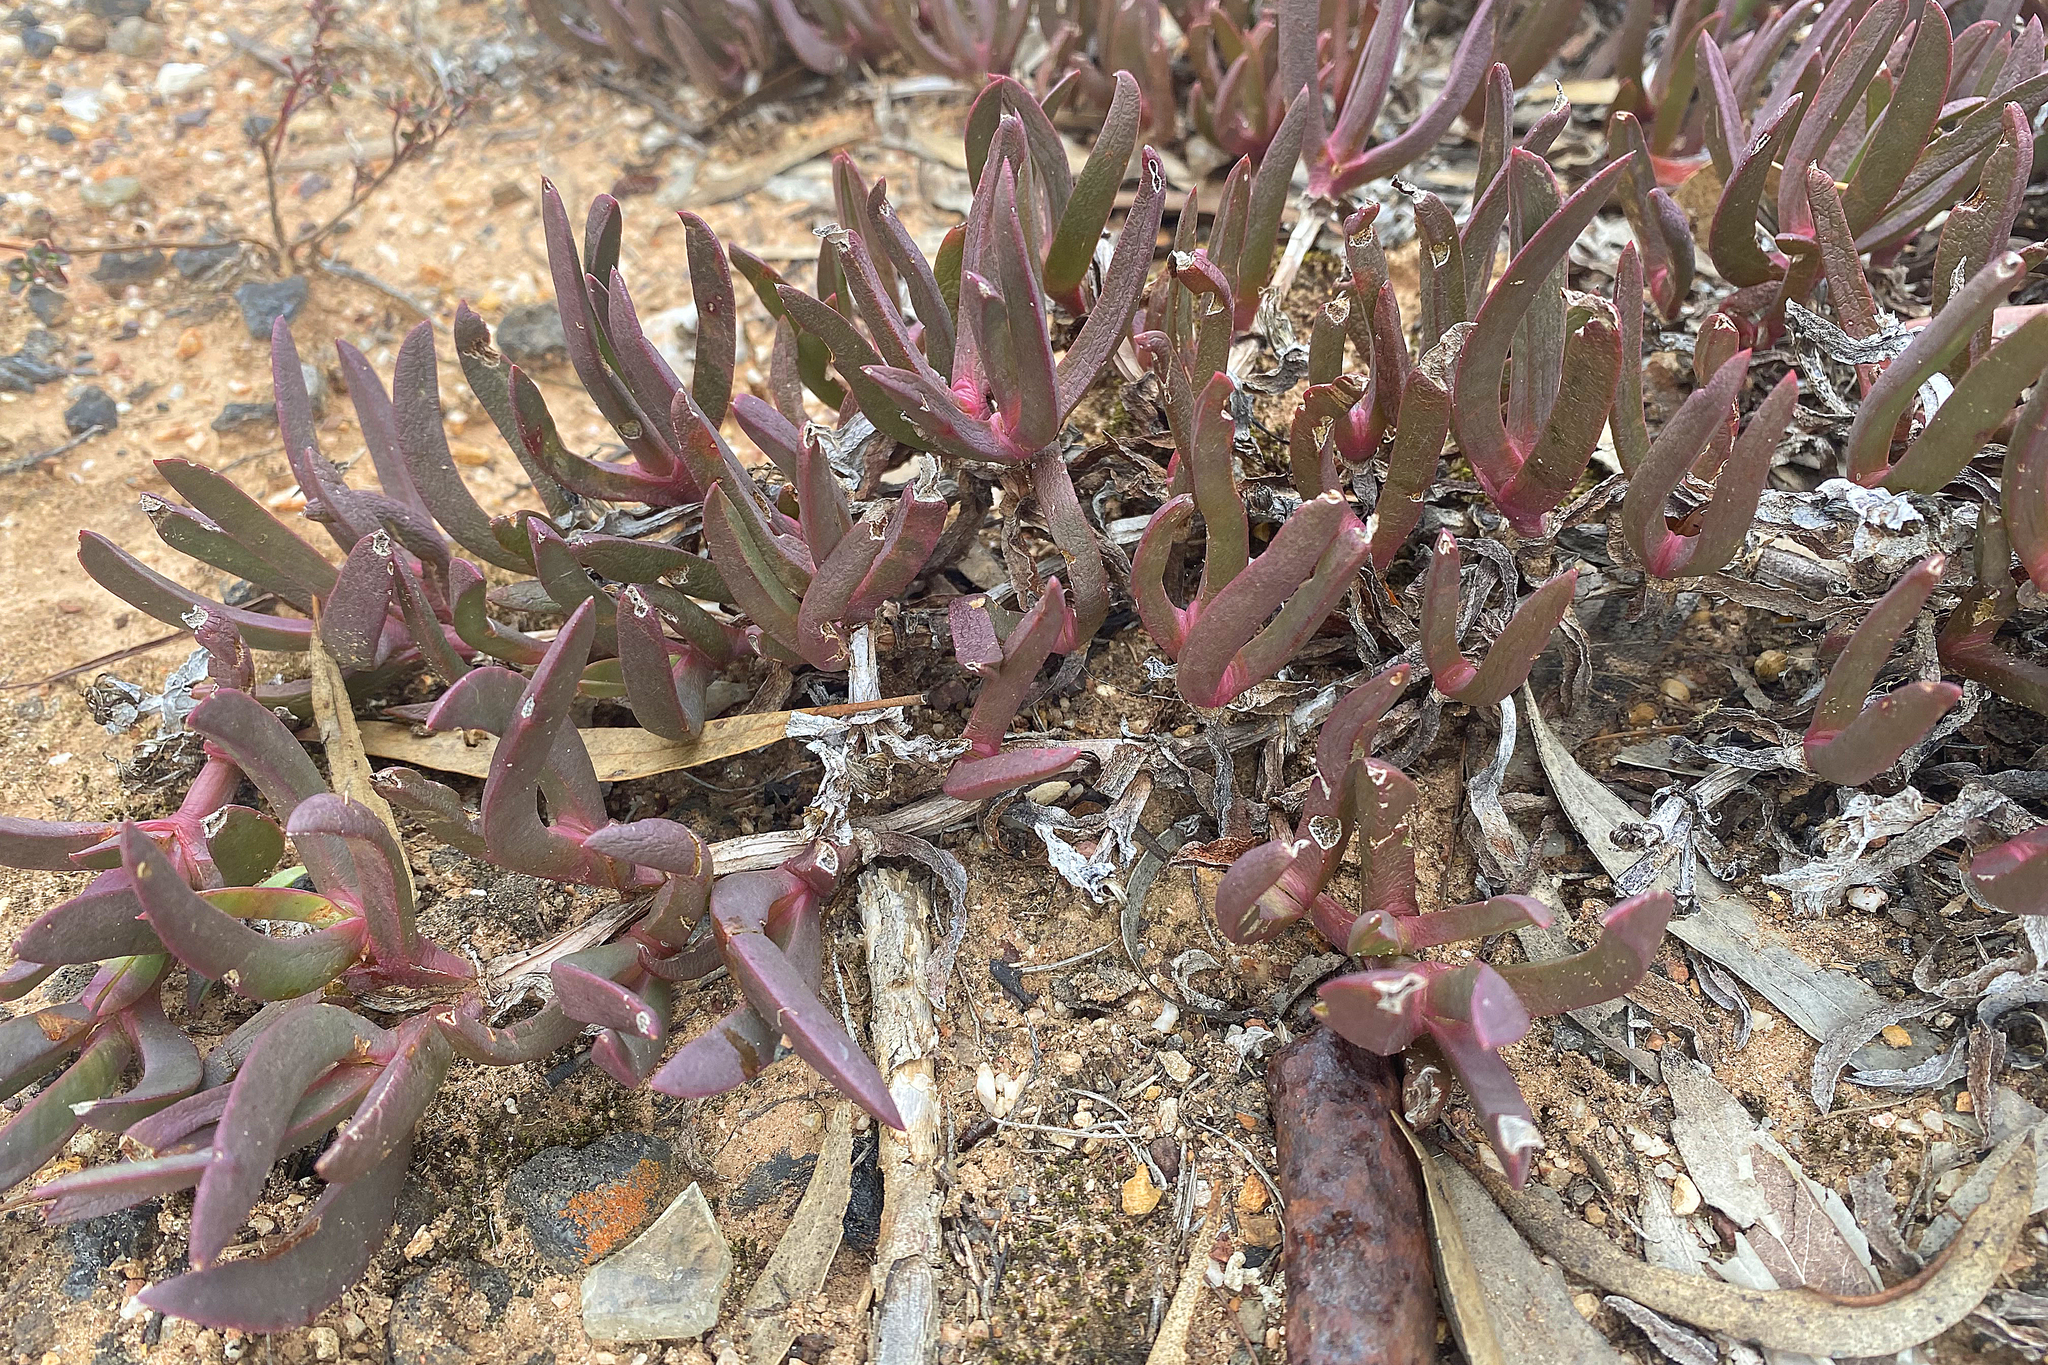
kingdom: Plantae
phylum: Tracheophyta
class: Magnoliopsida
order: Caryophyllales
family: Aizoaceae
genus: Carpobrotus
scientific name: Carpobrotus modestus
